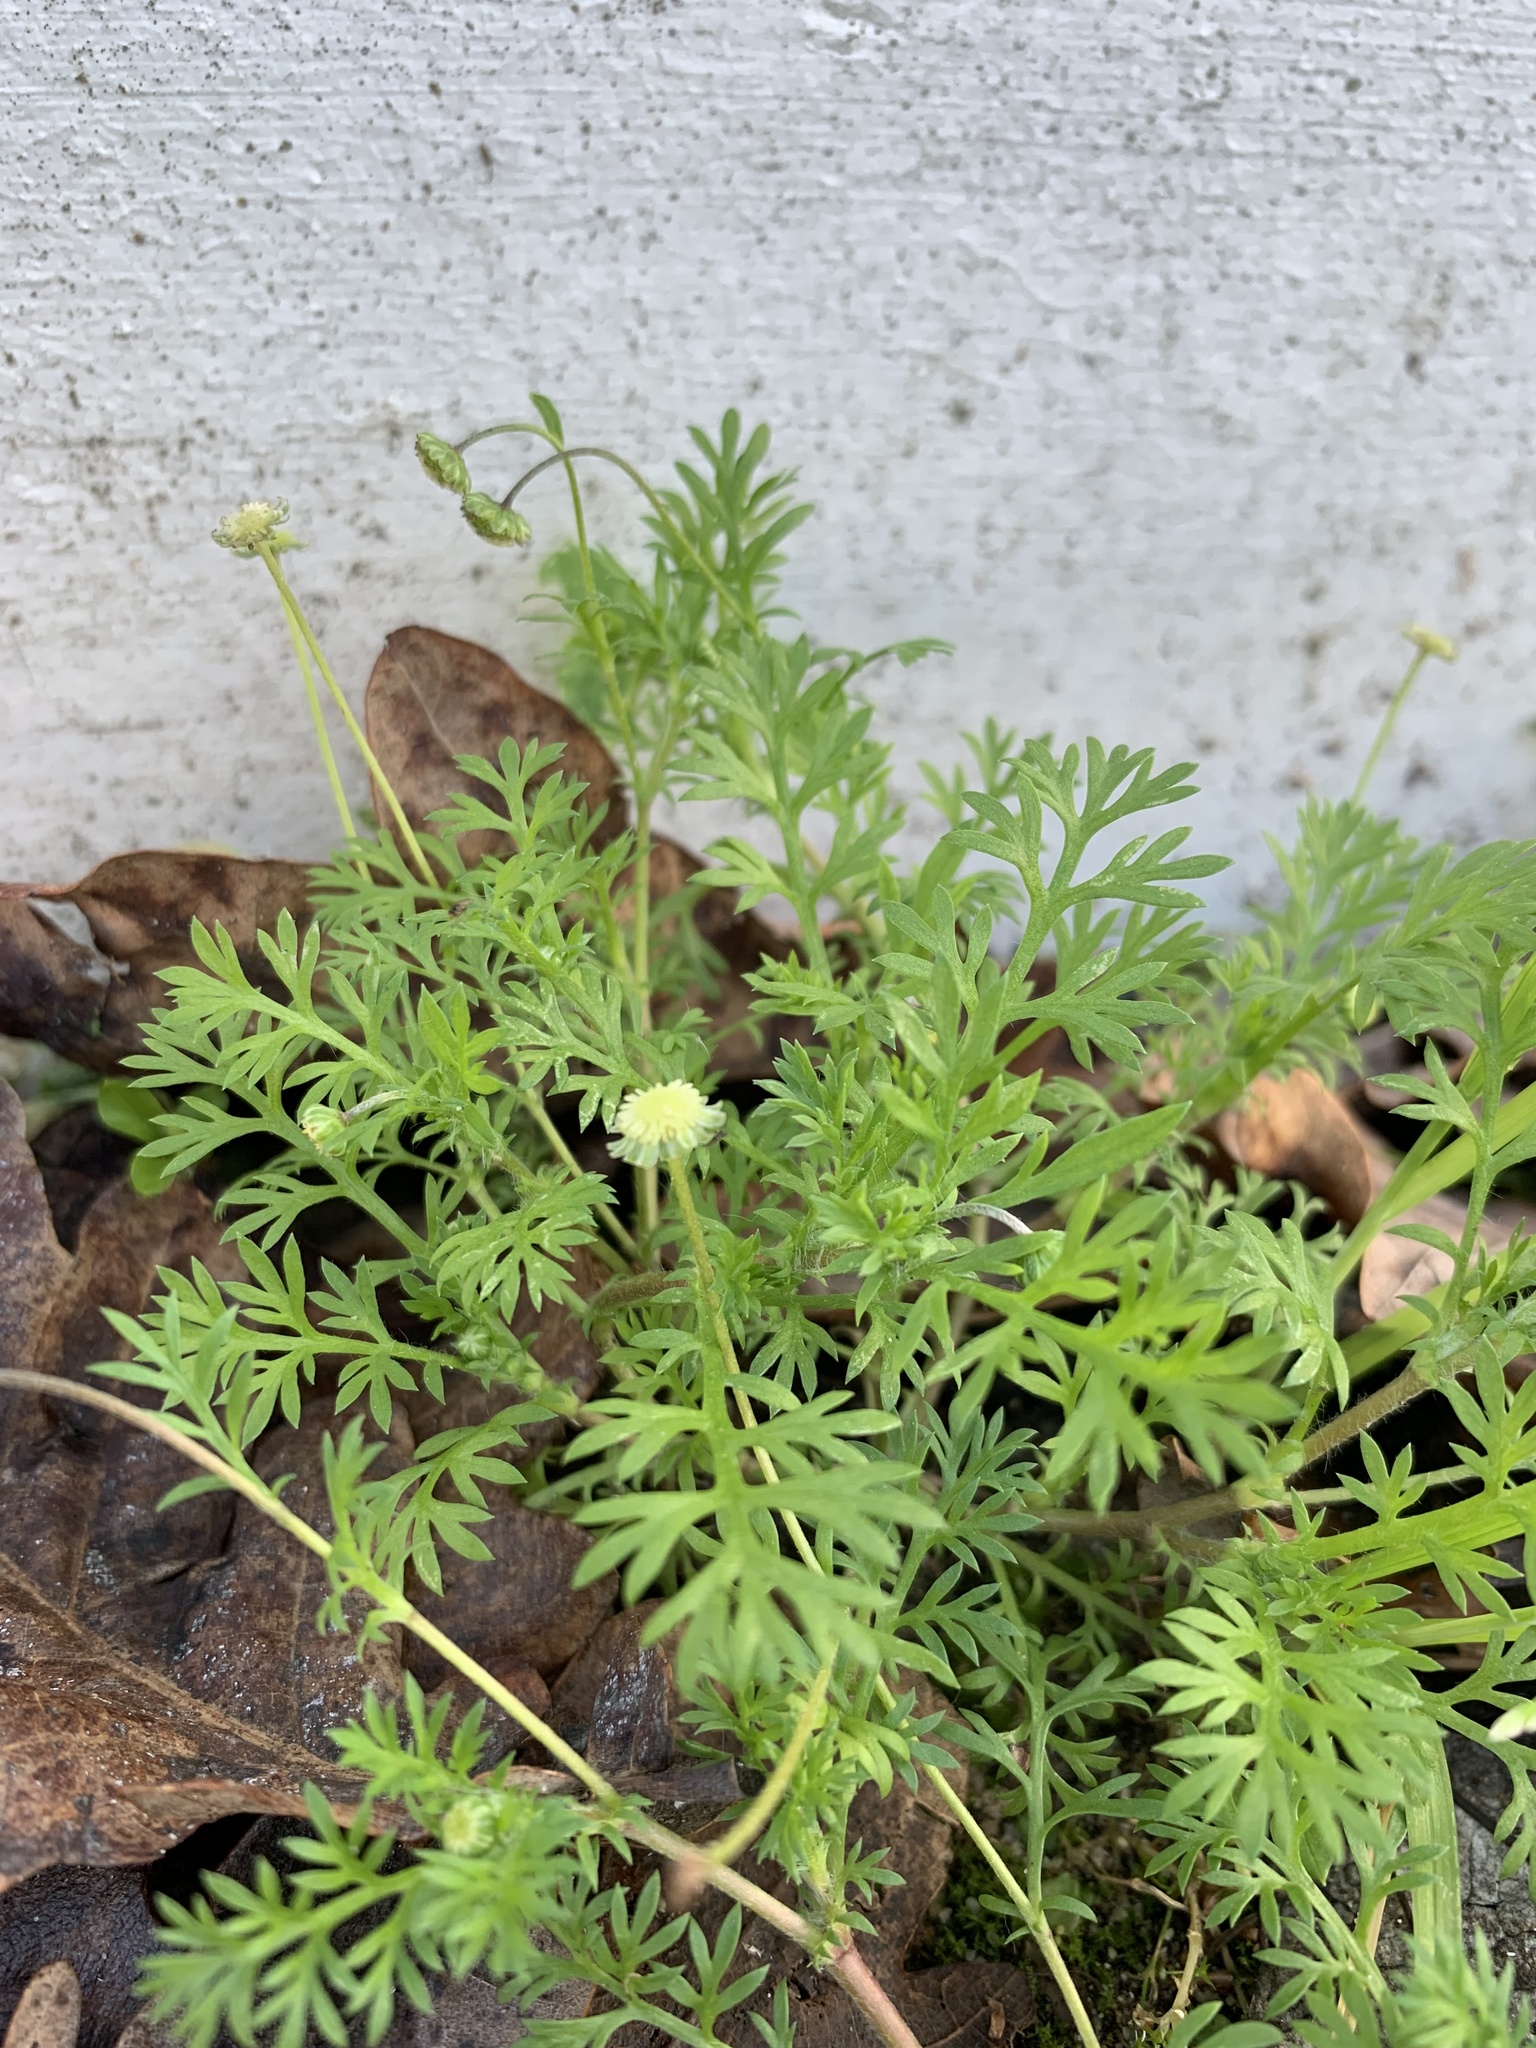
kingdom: Plantae
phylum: Tracheophyta
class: Magnoliopsida
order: Asterales
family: Asteraceae
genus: Cotula
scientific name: Cotula australis
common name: Australian waterbuttons
